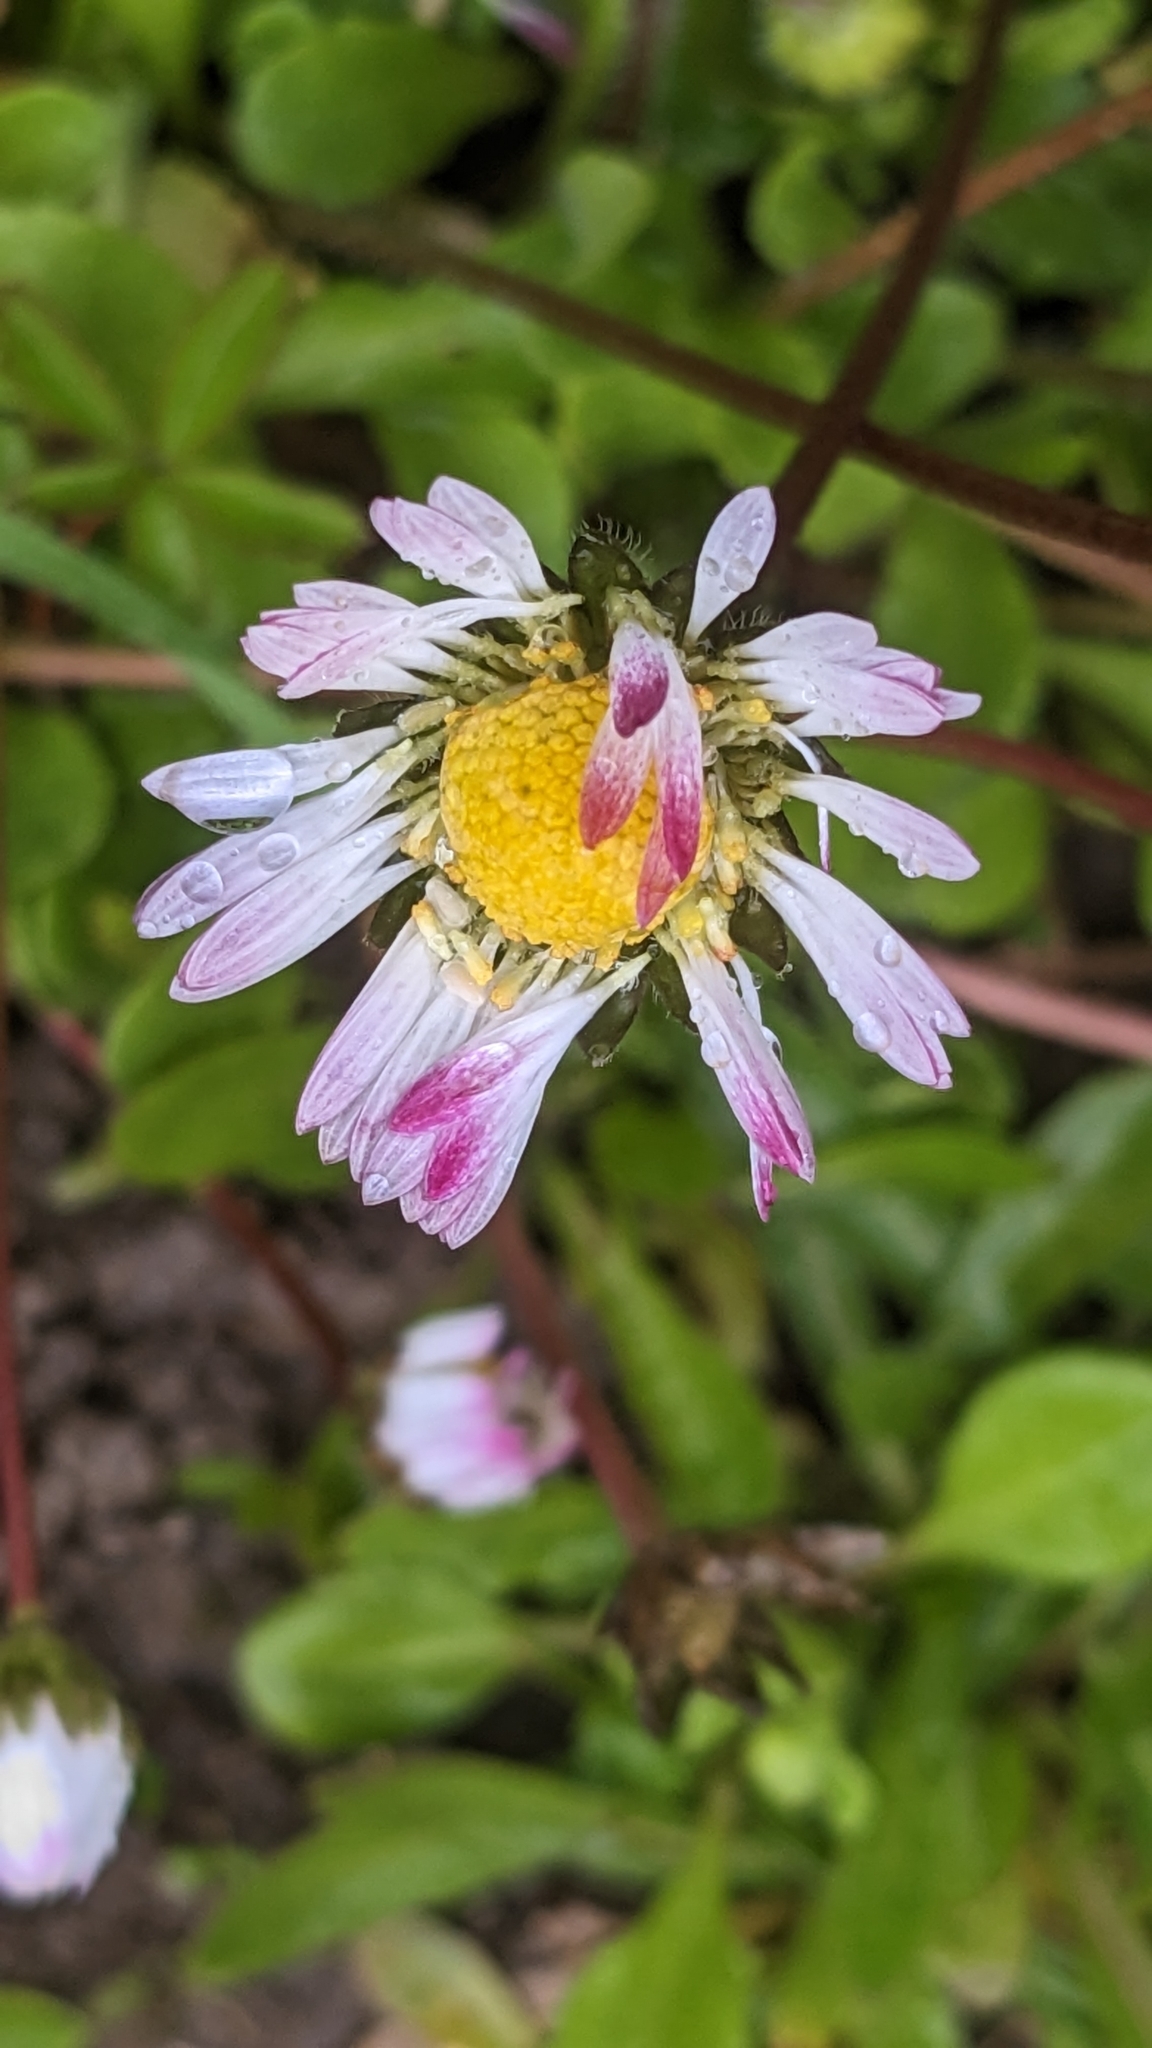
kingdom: Plantae
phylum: Tracheophyta
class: Magnoliopsida
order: Asterales
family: Asteraceae
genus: Bellis
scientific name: Bellis perennis
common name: Lawndaisy
